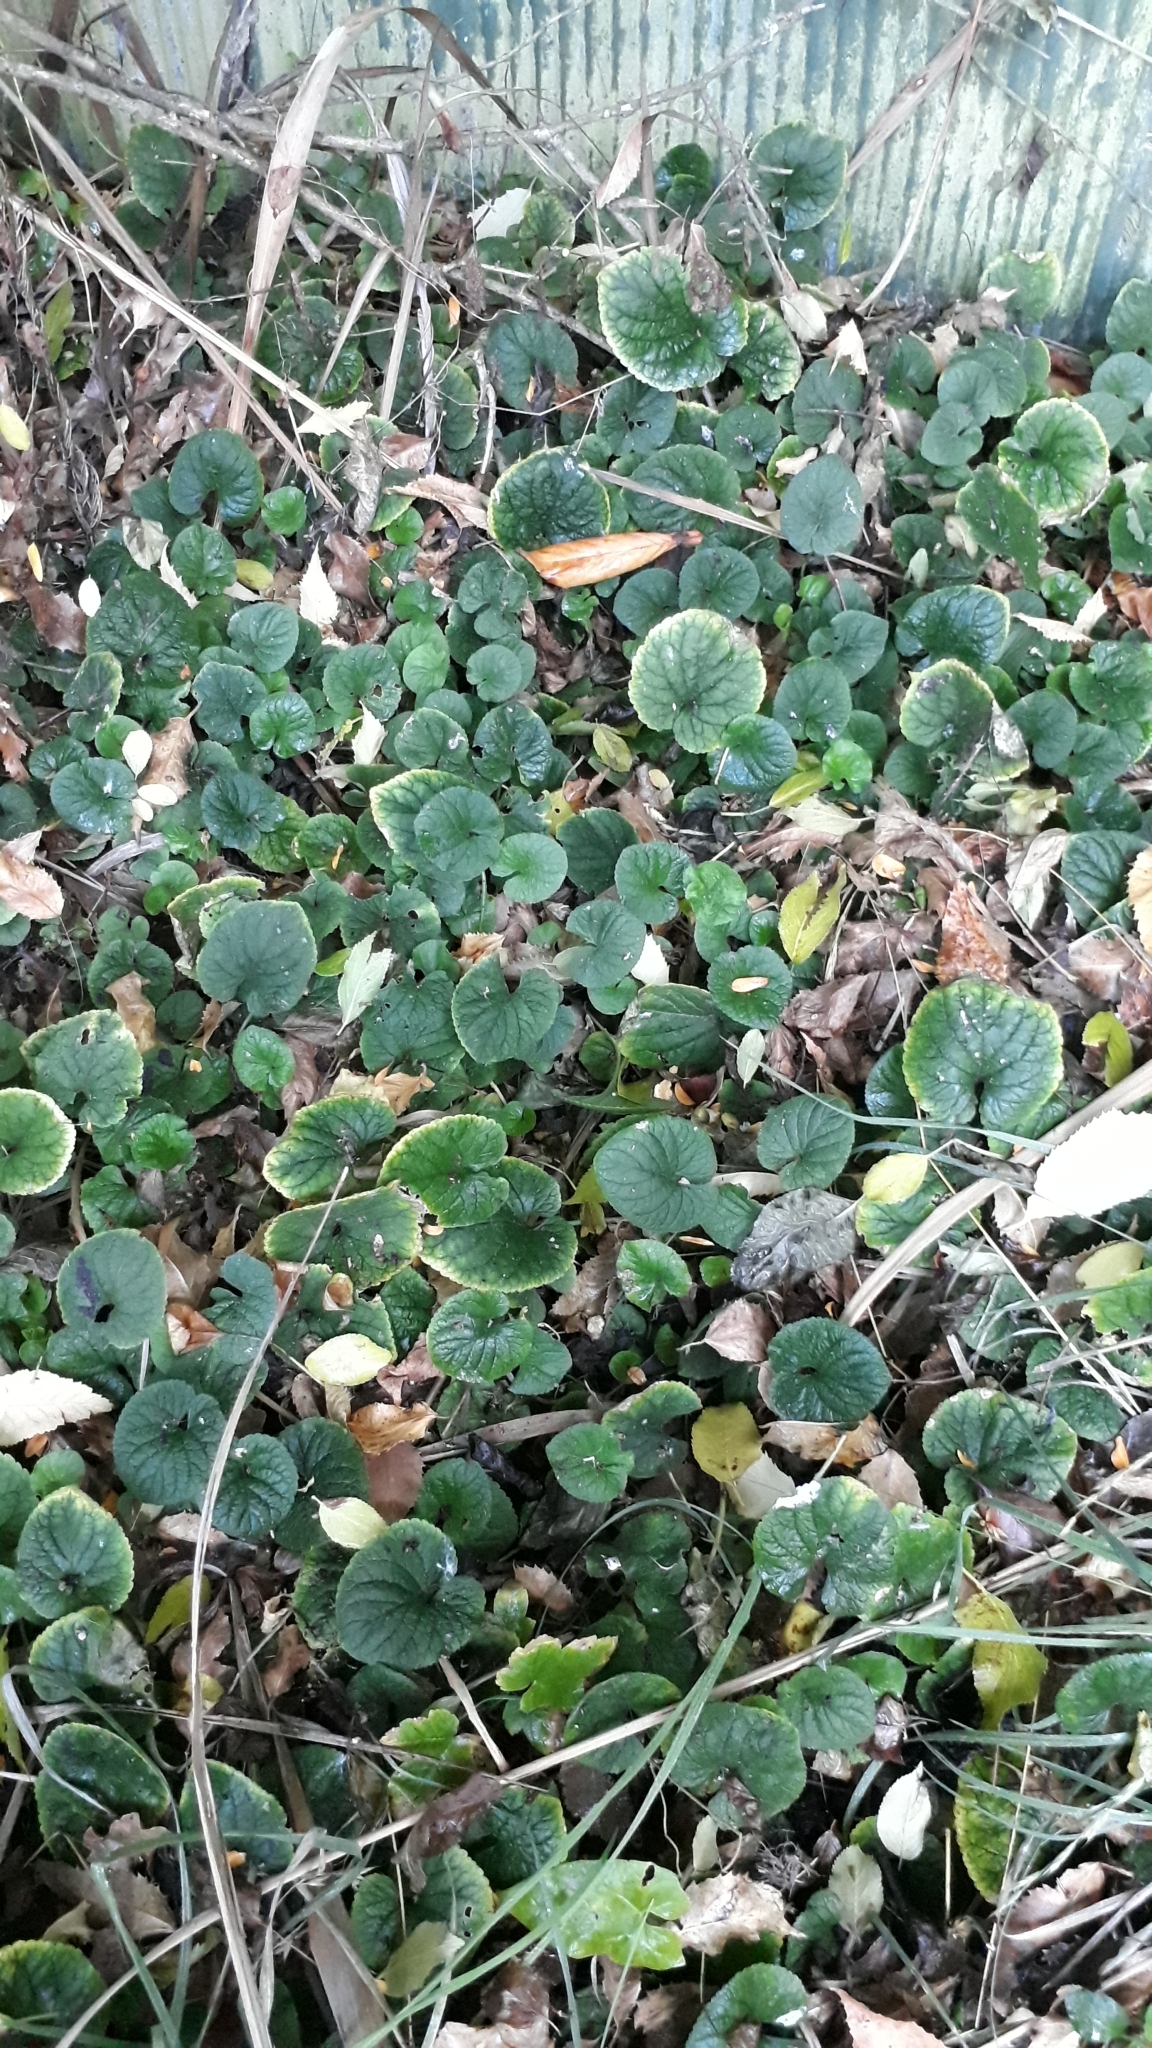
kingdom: Plantae
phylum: Tracheophyta
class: Magnoliopsida
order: Malpighiales
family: Violaceae
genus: Viola
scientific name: Viola riviniana
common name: Common dog-violet
